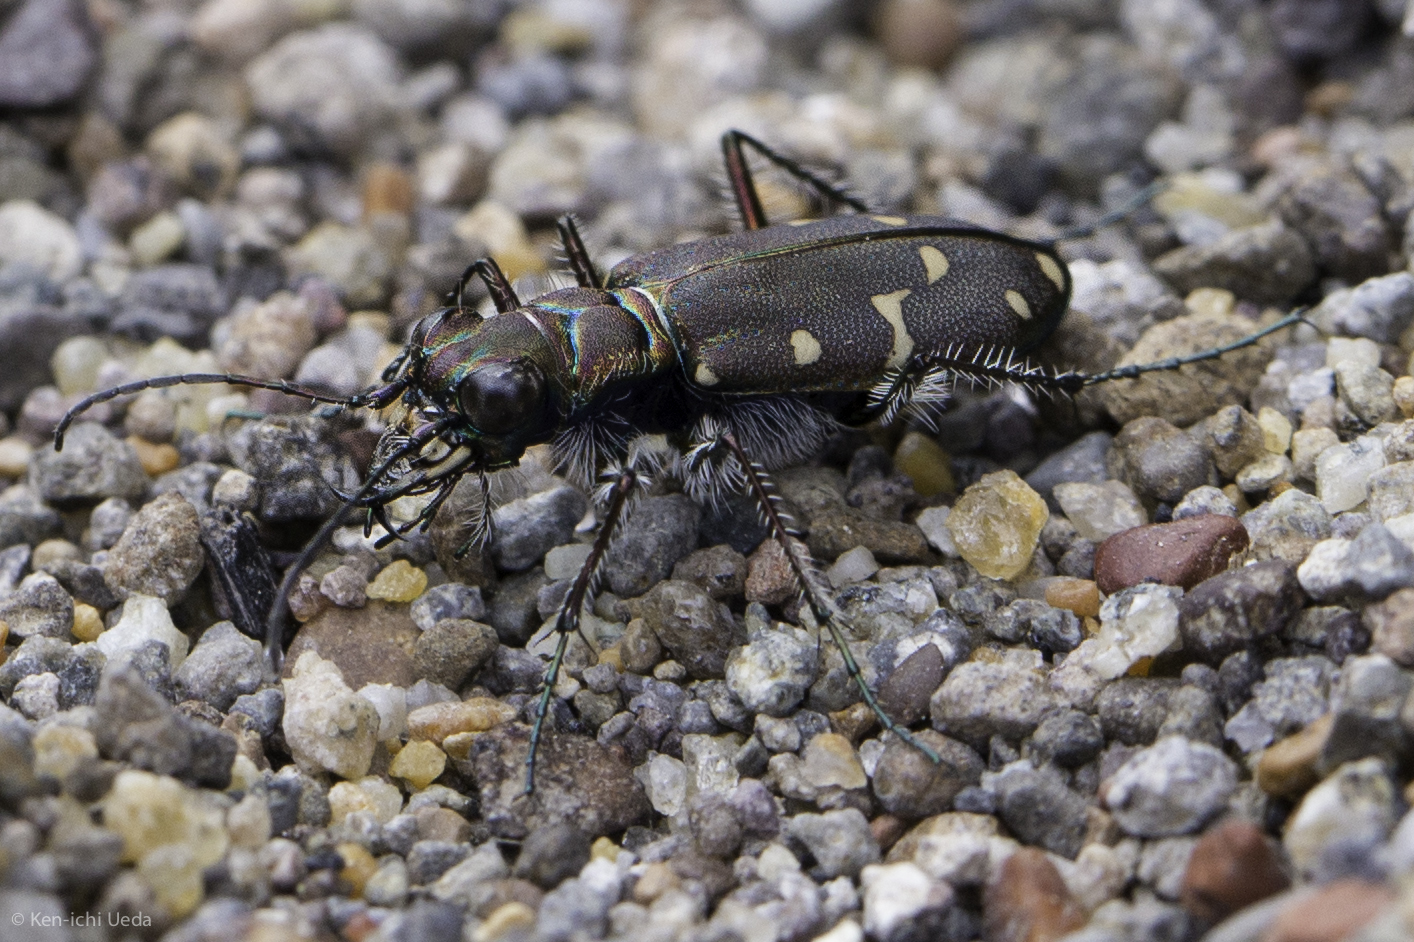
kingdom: Animalia
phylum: Arthropoda
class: Insecta
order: Coleoptera
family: Carabidae
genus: Cicindela
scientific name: Cicindela oregona
